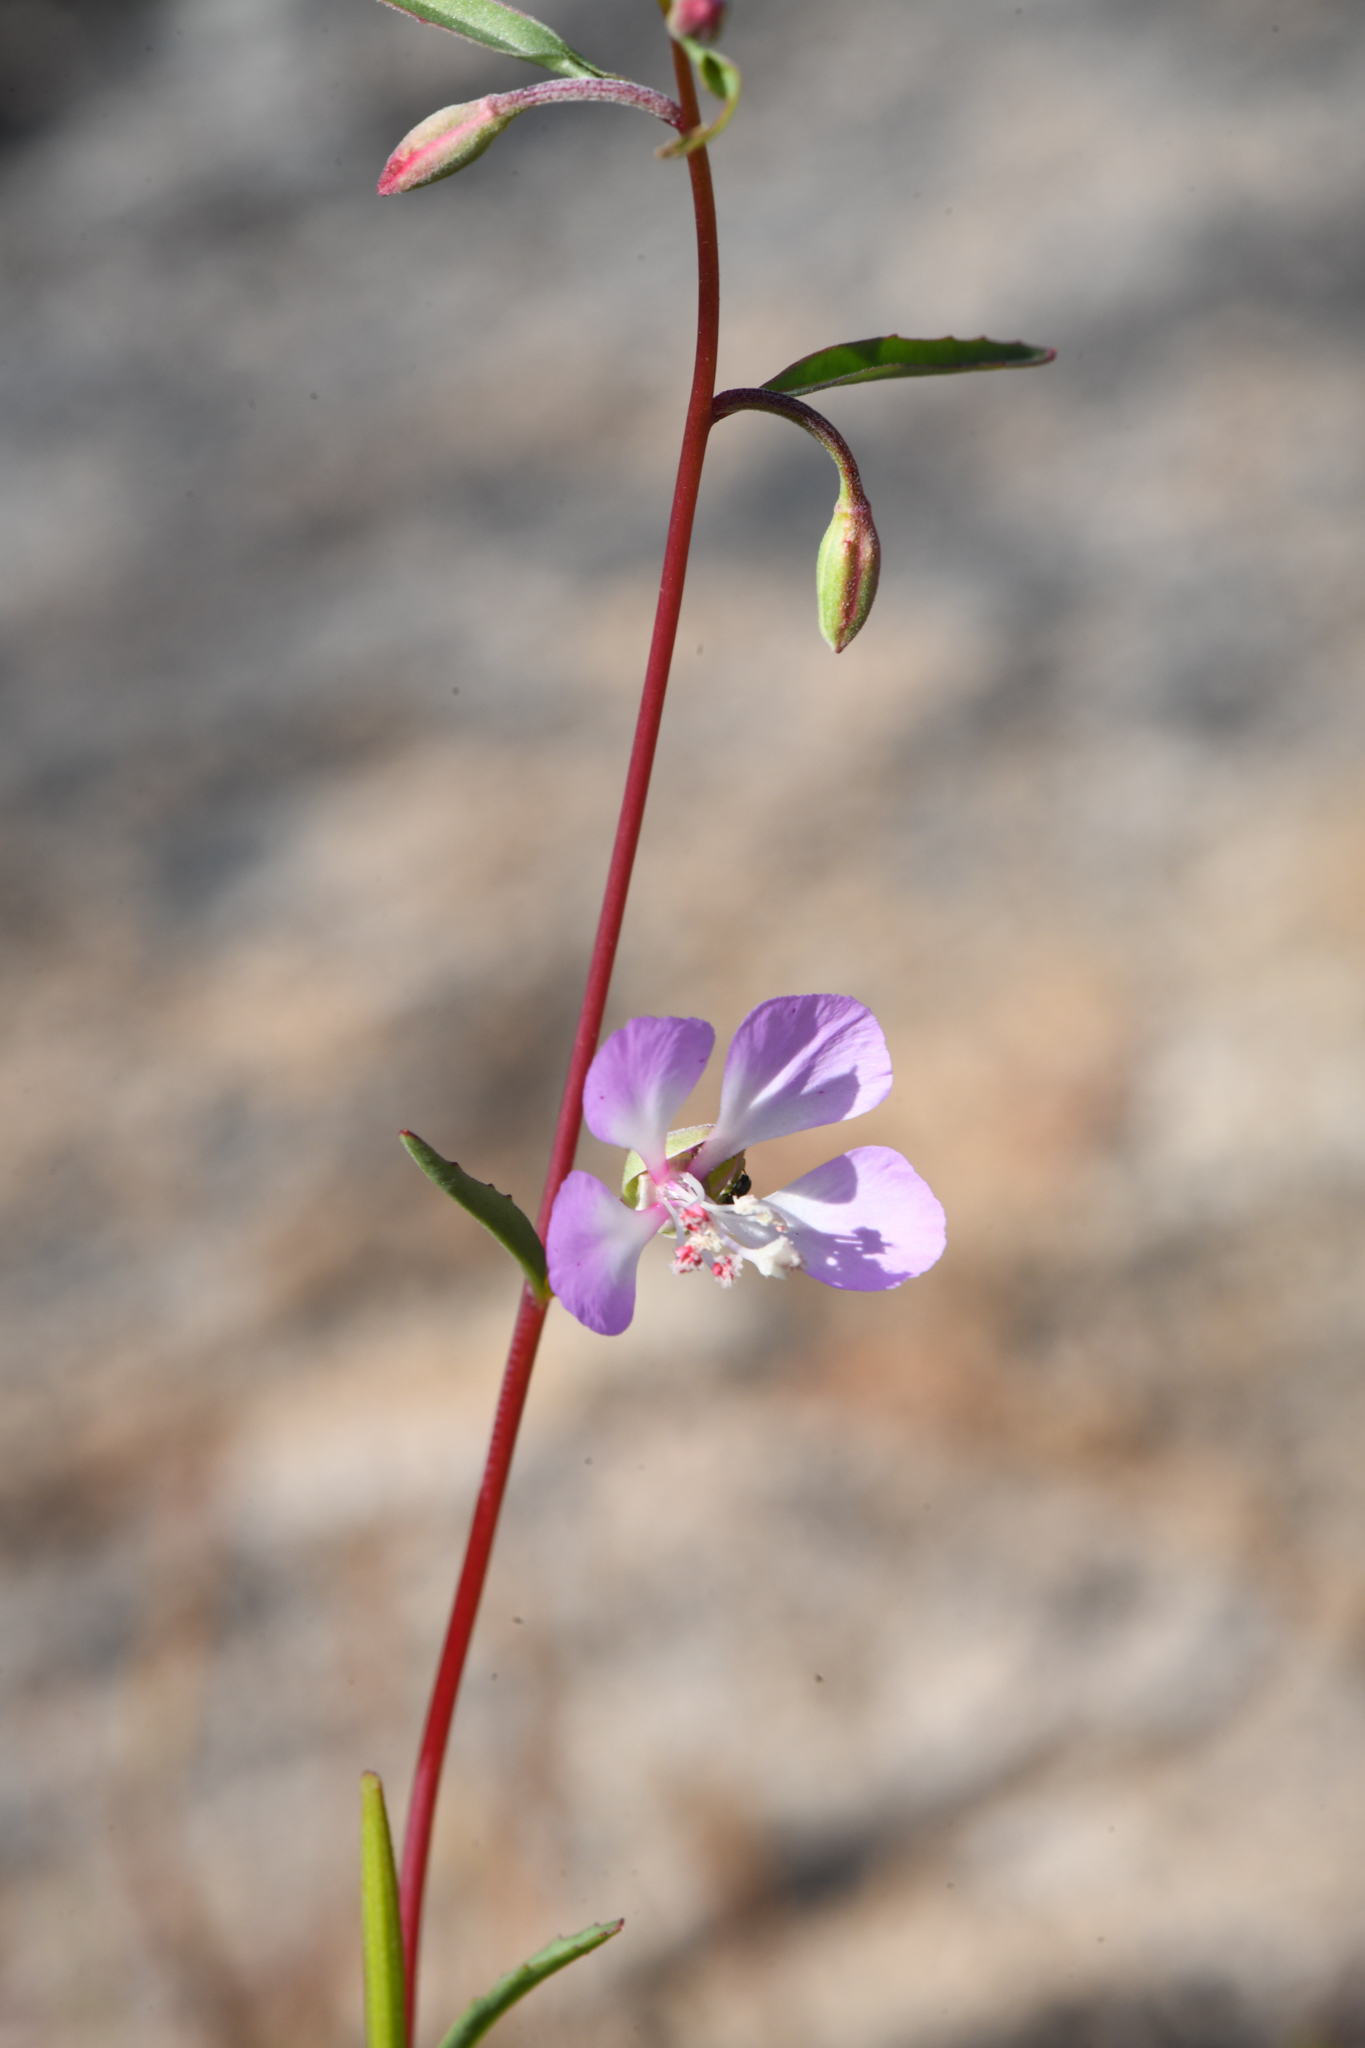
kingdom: Plantae
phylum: Tracheophyta
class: Magnoliopsida
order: Myrtales
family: Onagraceae
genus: Clarkia
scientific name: Clarkia delicata
